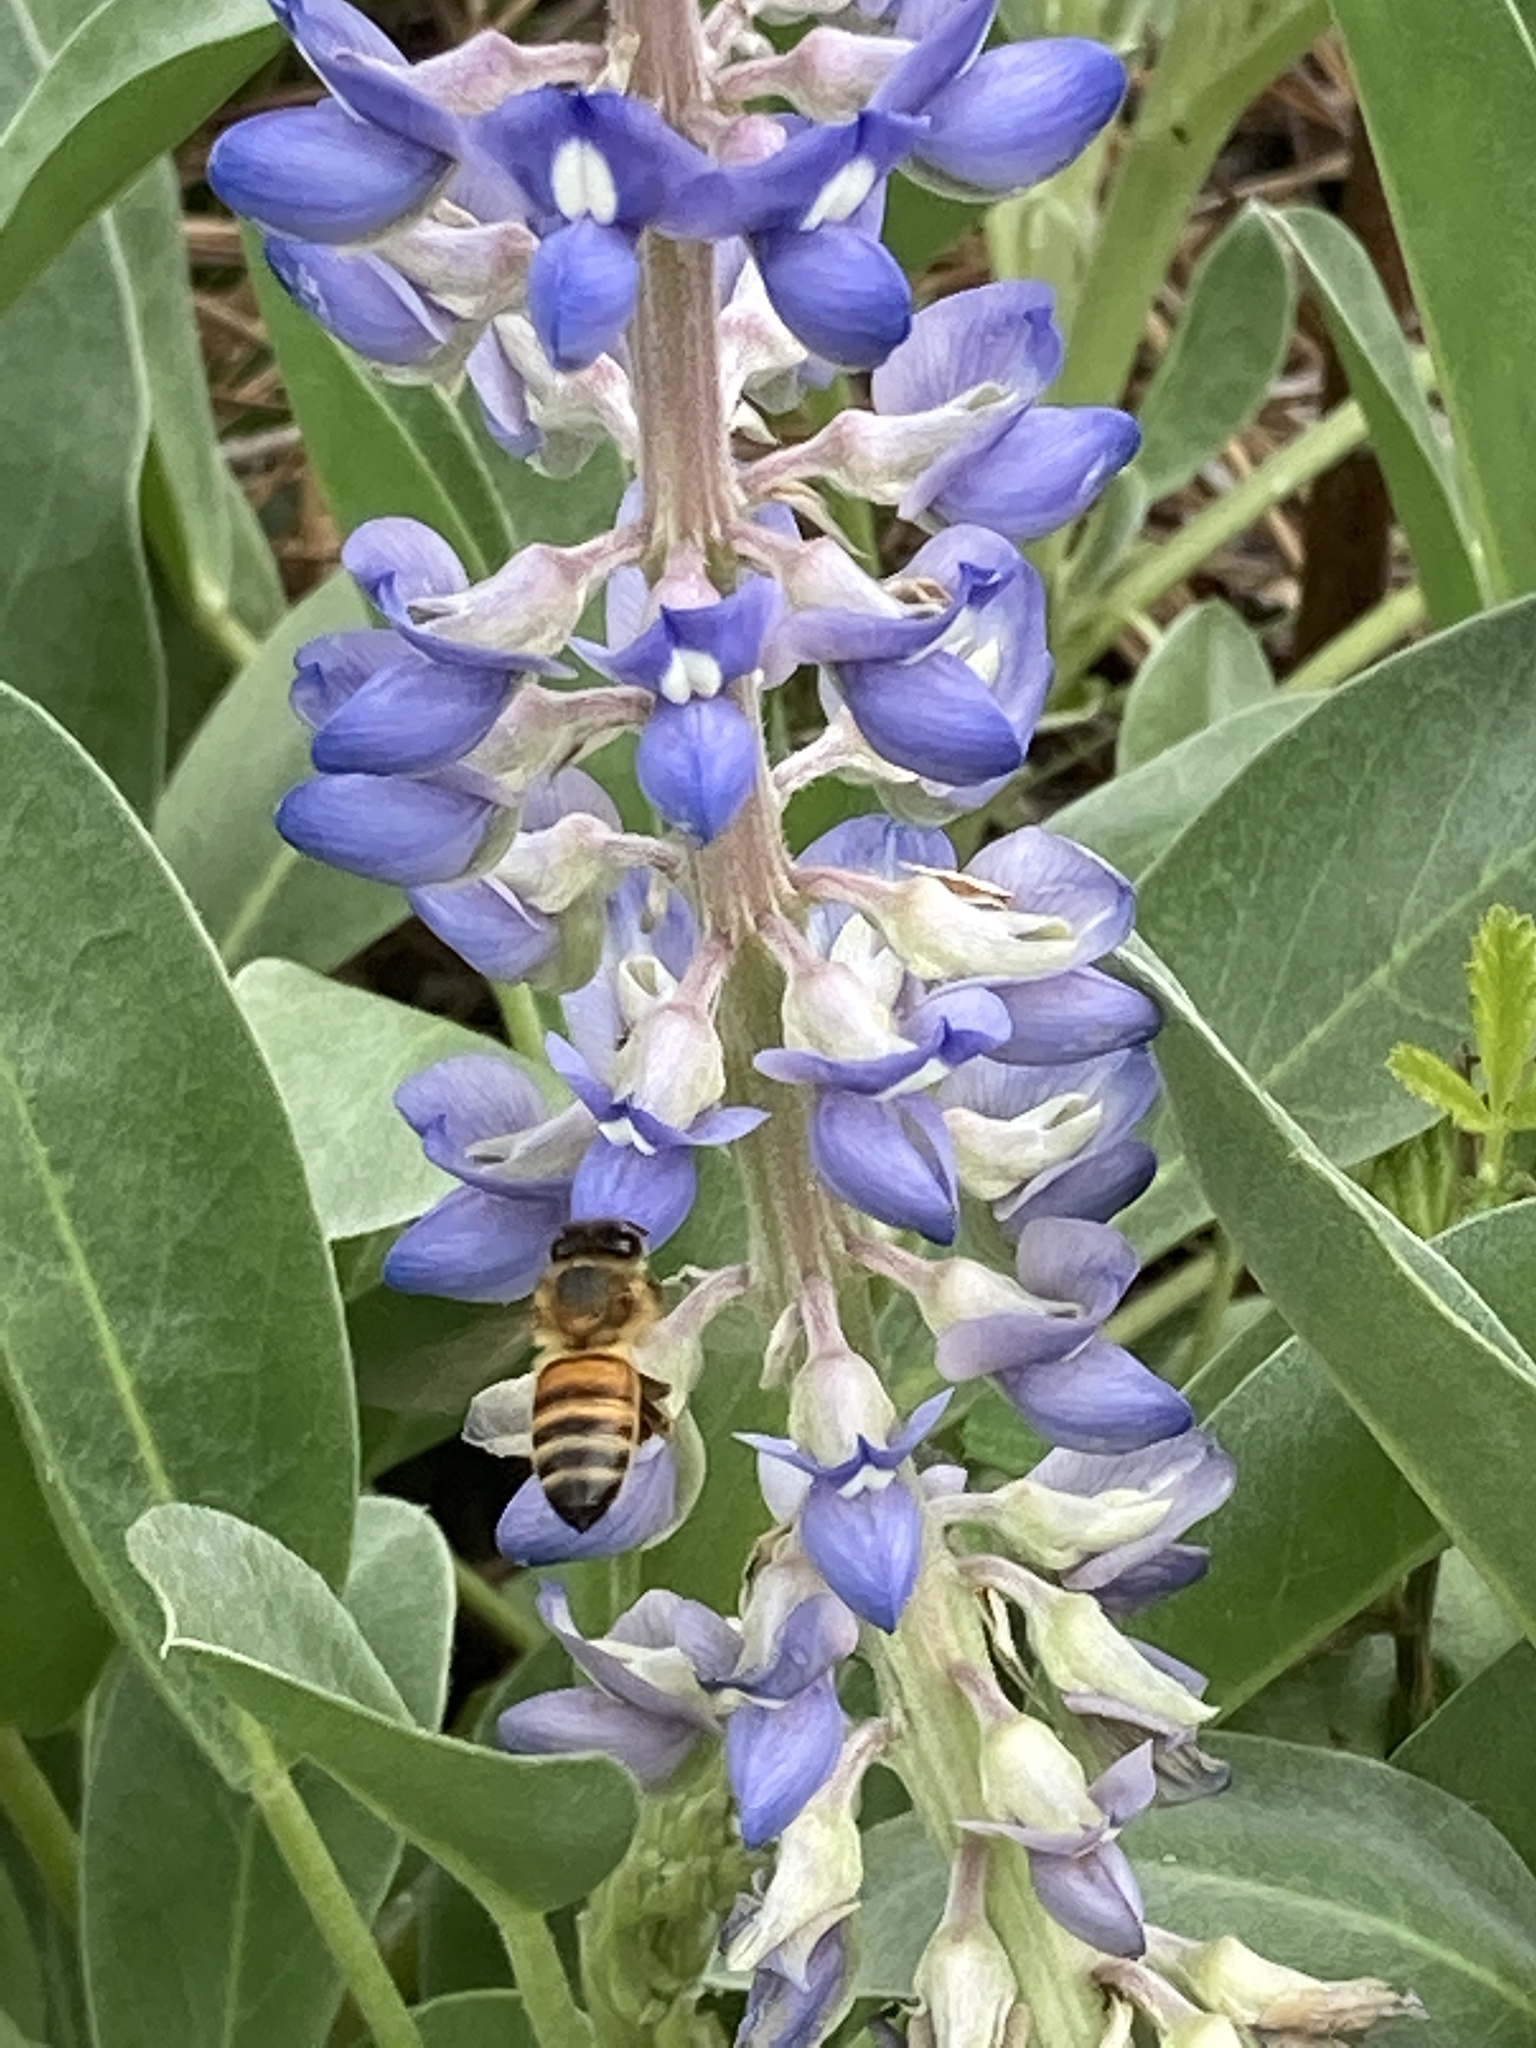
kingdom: Animalia
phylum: Arthropoda
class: Insecta
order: Hymenoptera
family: Apidae
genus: Apis
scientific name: Apis mellifera
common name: Honey bee
